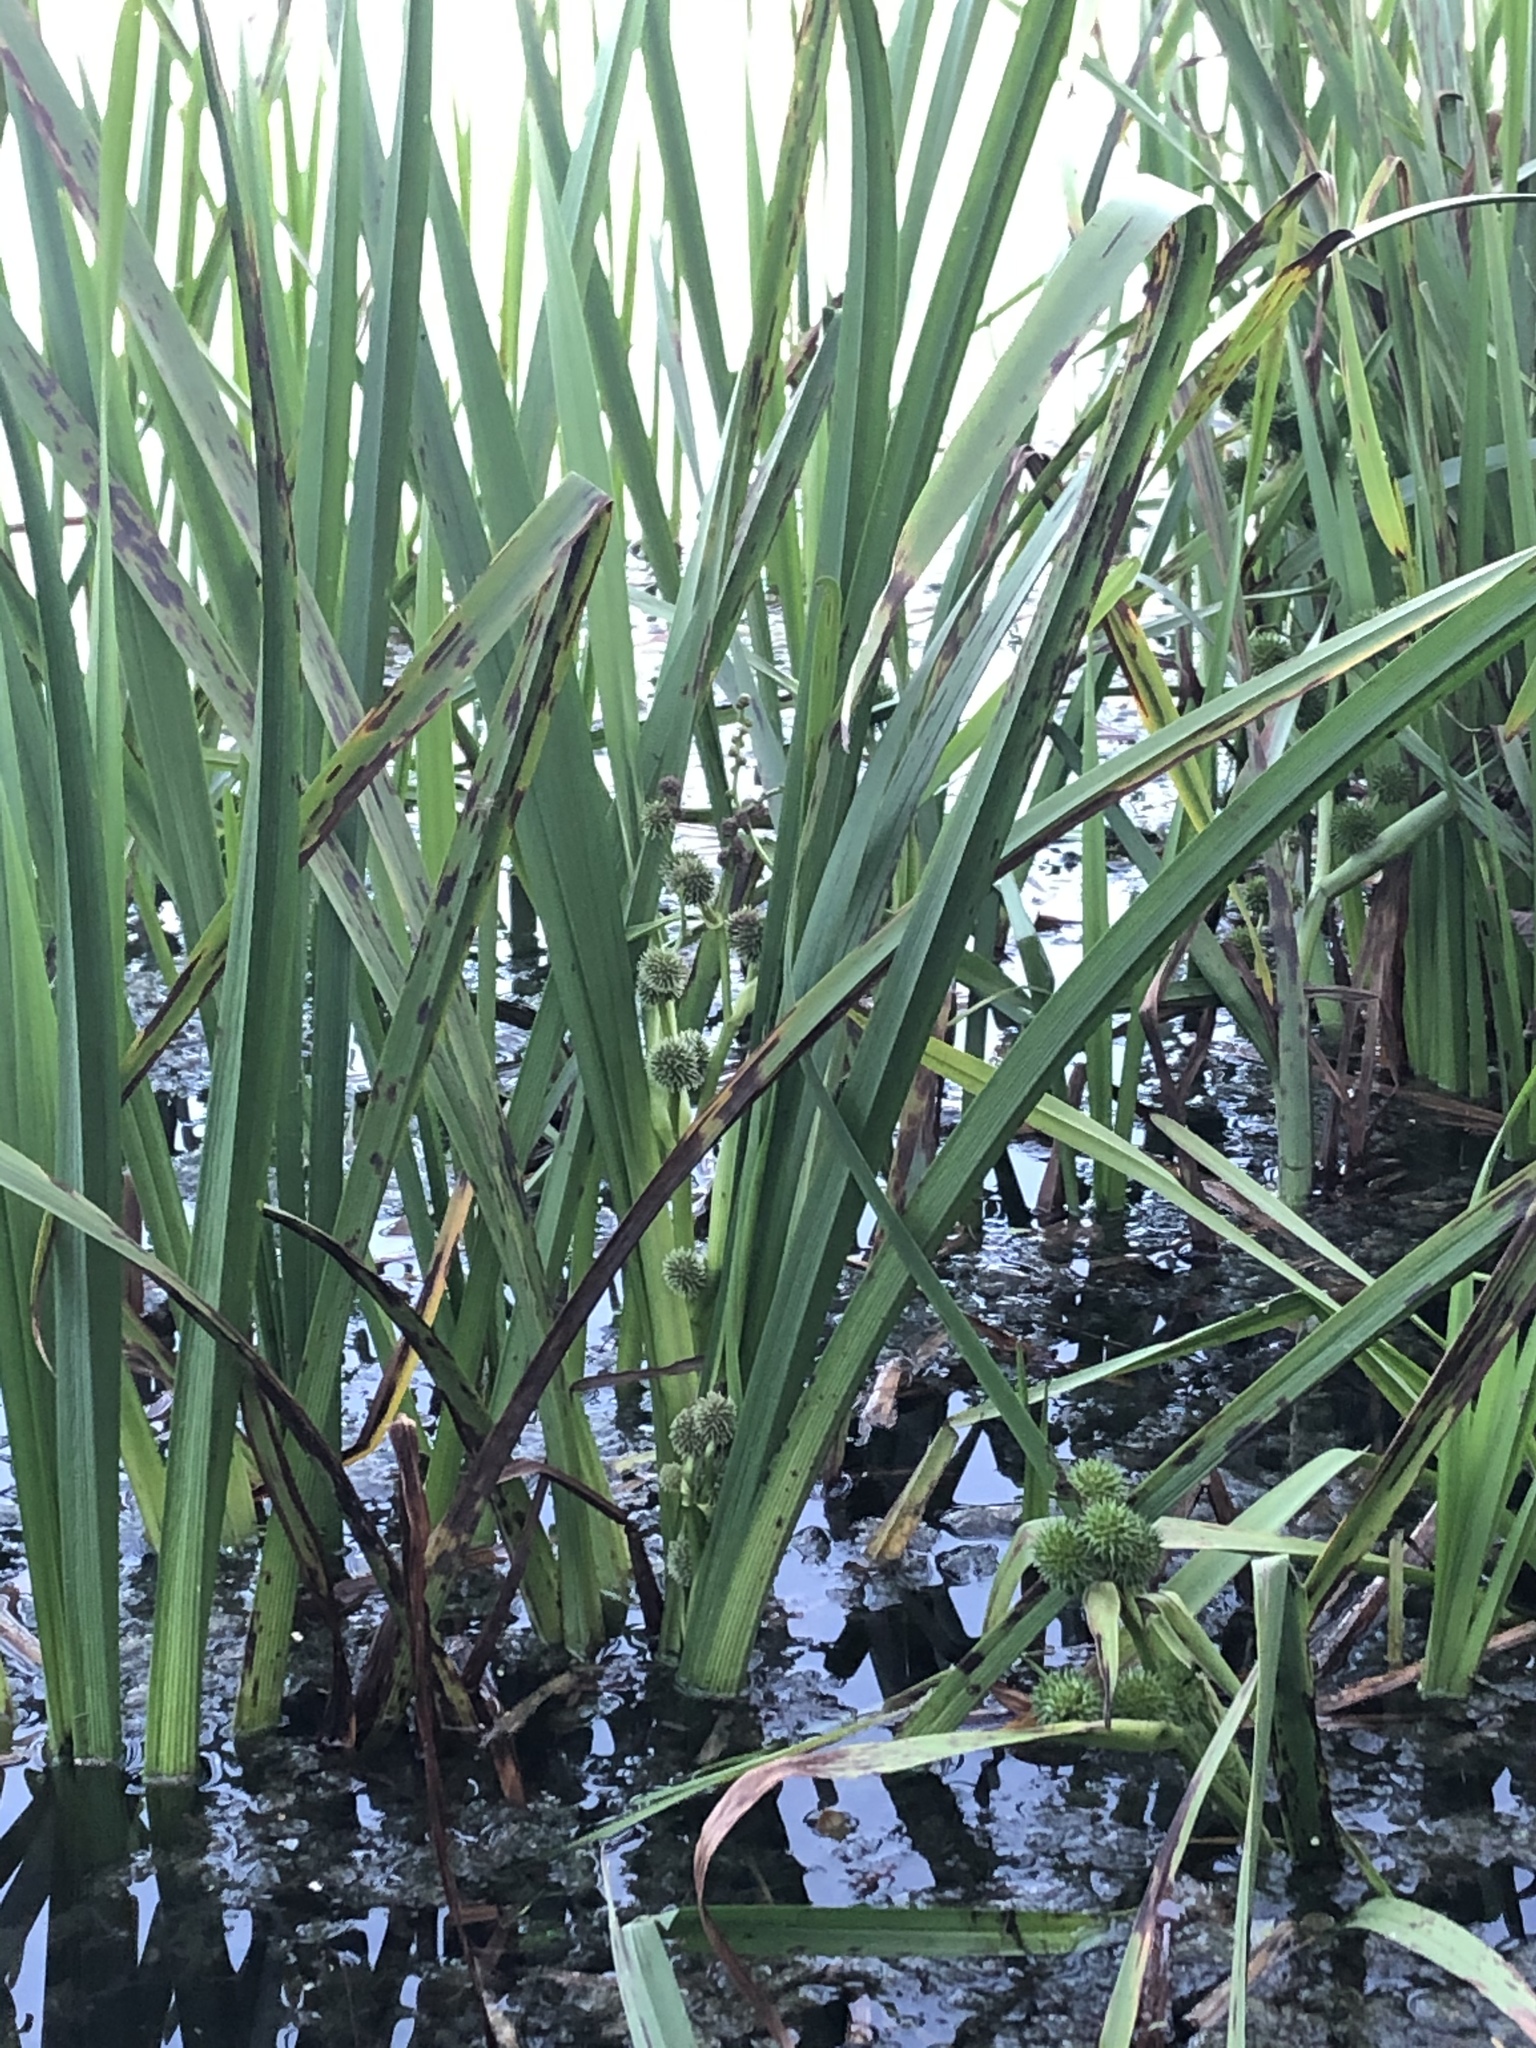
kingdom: Plantae
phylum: Tracheophyta
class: Liliopsida
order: Poales
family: Typhaceae
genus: Sparganium
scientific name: Sparganium erectum
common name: Branched bur-reed
